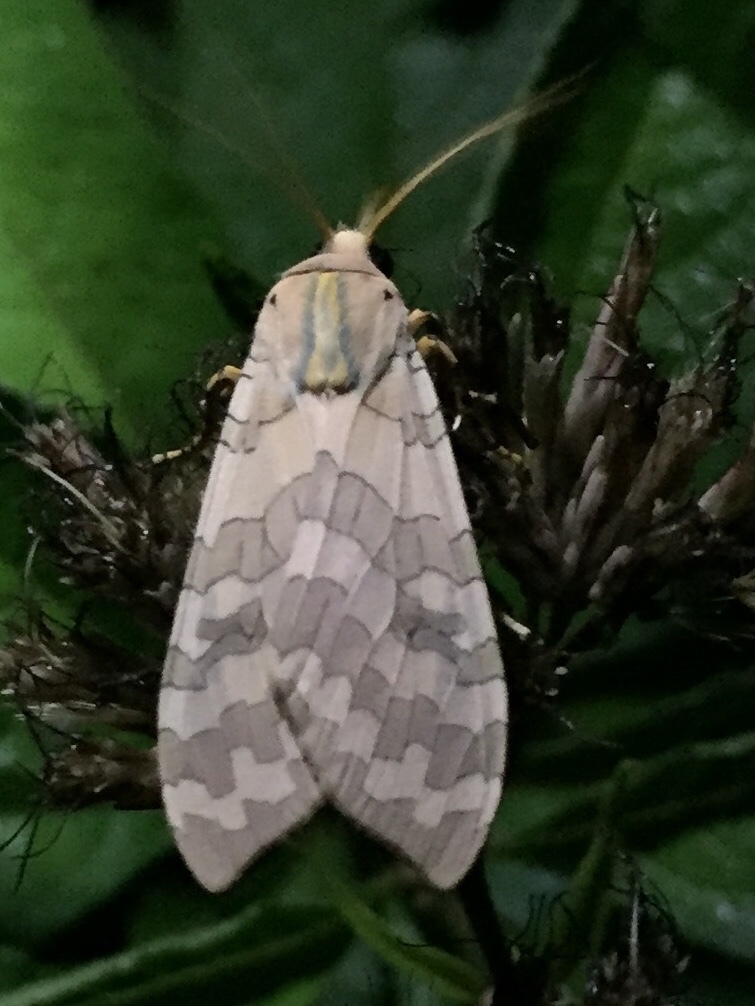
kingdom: Animalia
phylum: Arthropoda
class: Insecta
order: Lepidoptera
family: Erebidae
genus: Halysidota
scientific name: Halysidota
